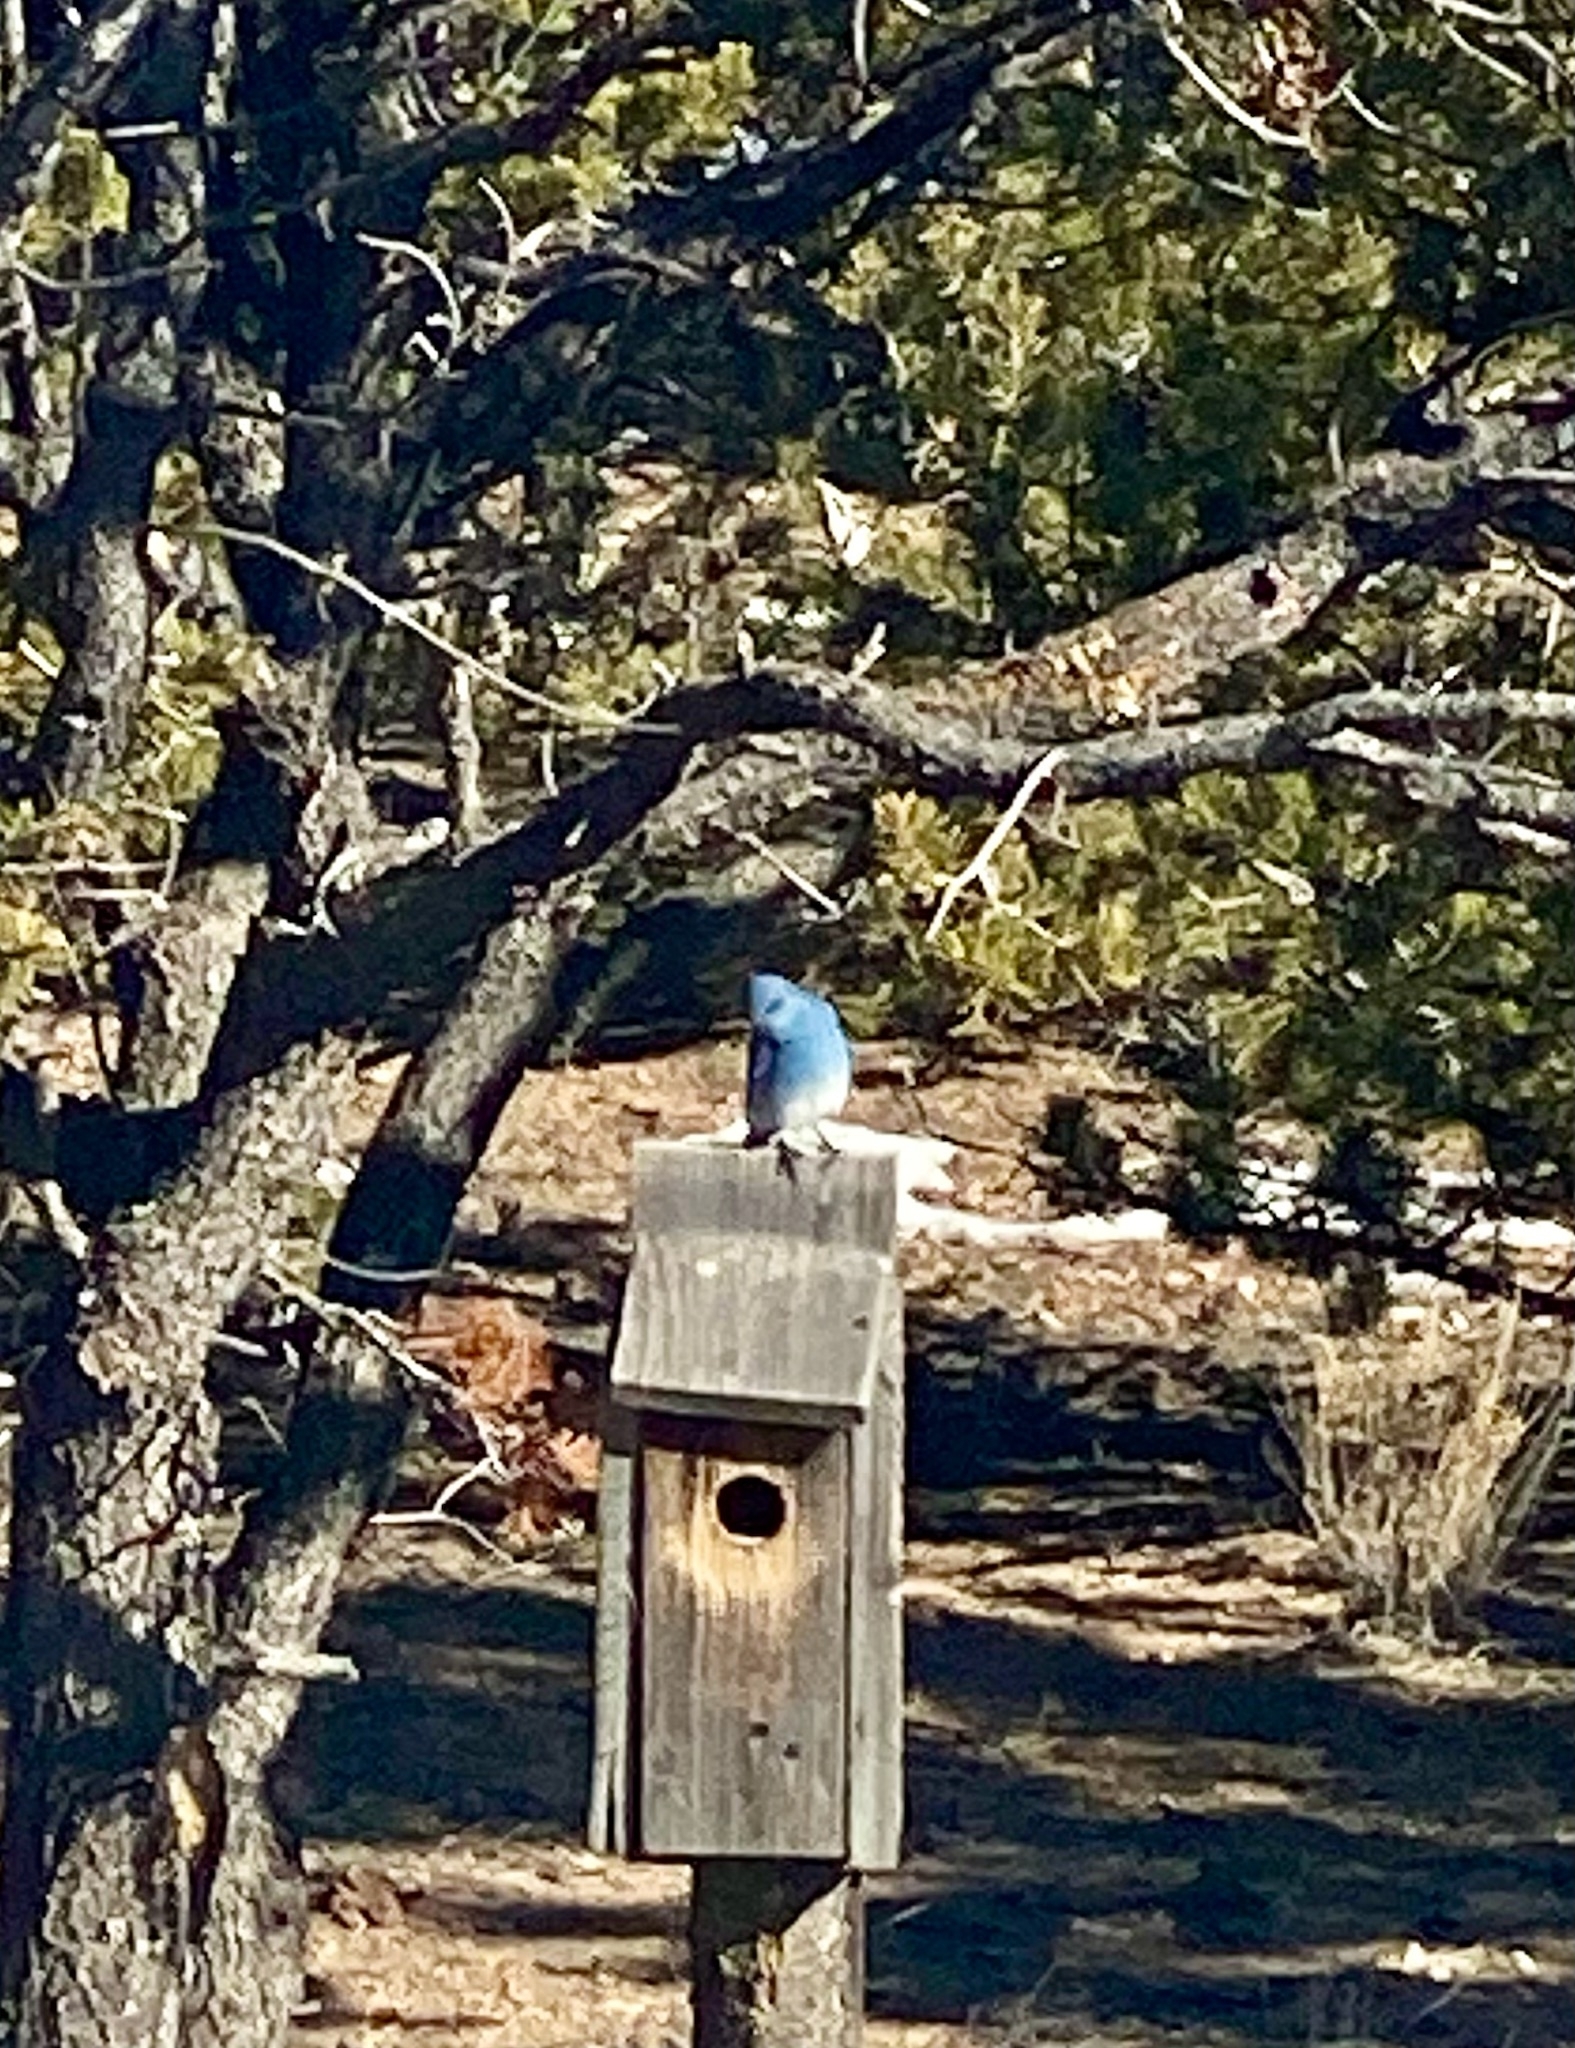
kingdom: Animalia
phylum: Chordata
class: Aves
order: Passeriformes
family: Turdidae
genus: Sialia
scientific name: Sialia currucoides
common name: Mountain bluebird
